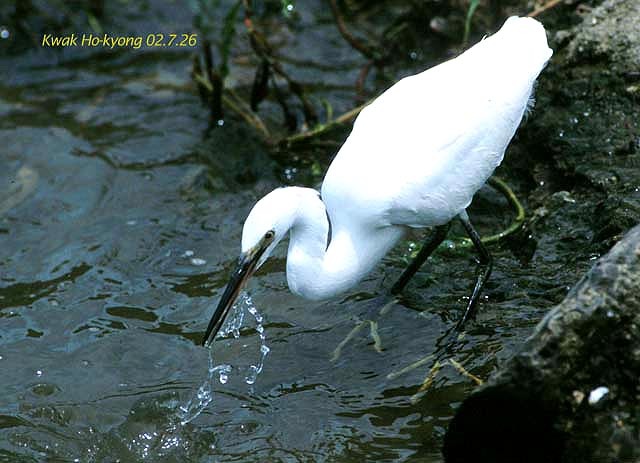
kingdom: Animalia
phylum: Chordata
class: Aves
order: Pelecaniformes
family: Ardeidae
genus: Egretta
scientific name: Egretta garzetta
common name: Little egret
